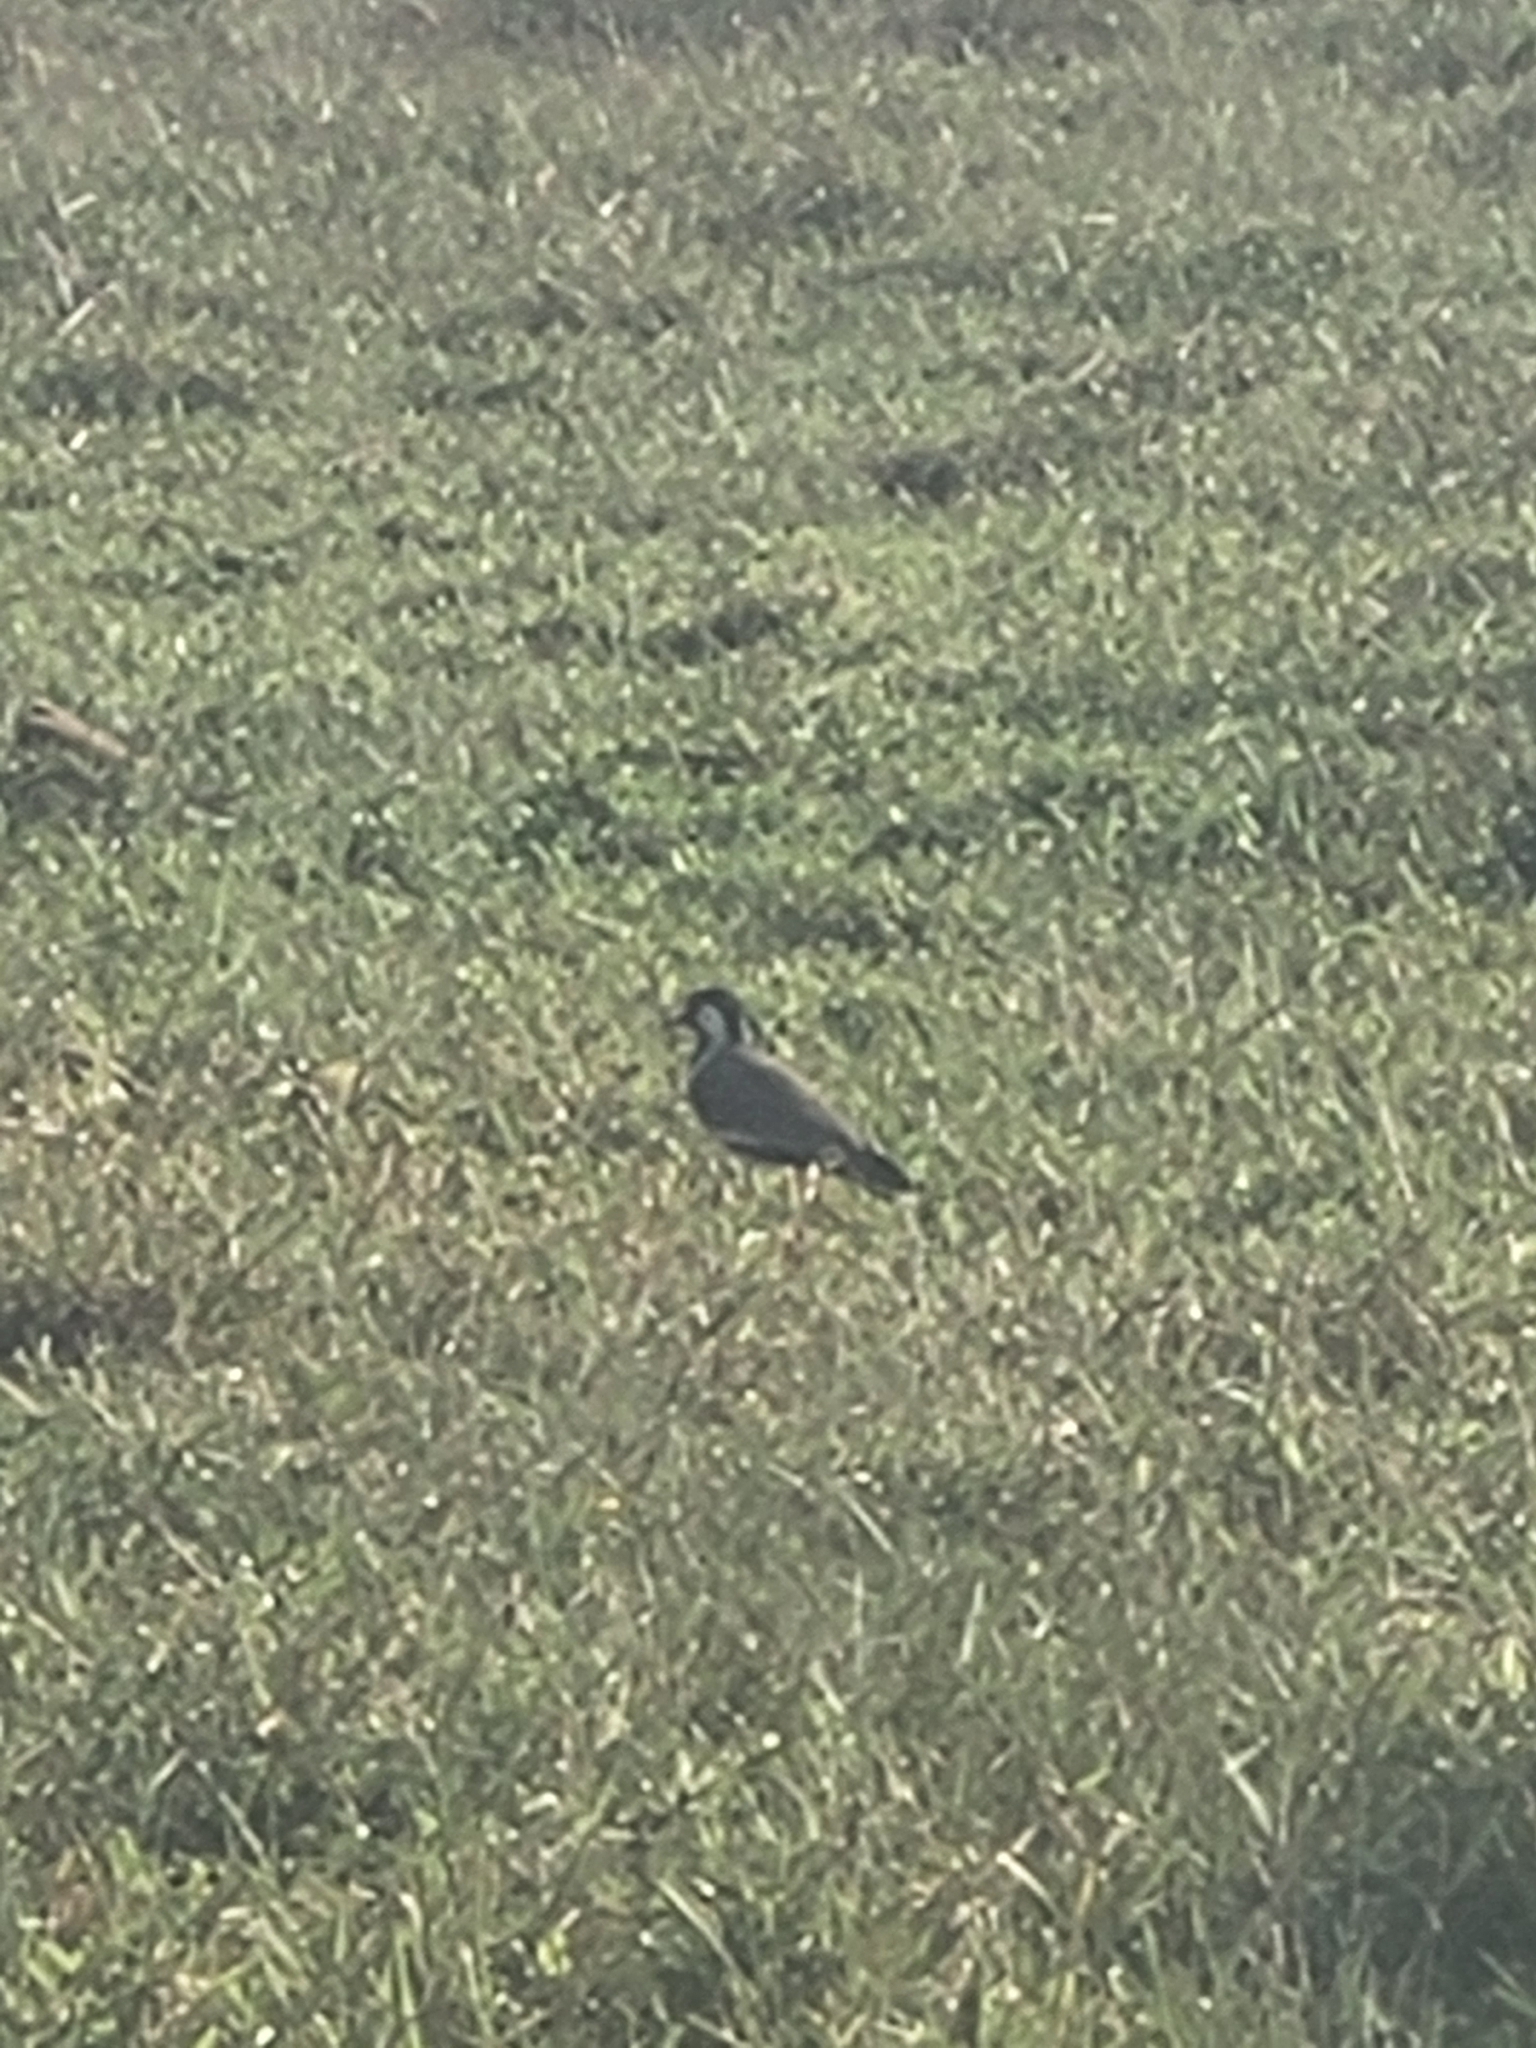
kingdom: Animalia
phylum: Chordata
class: Aves
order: Charadriiformes
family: Charadriidae
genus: Vanellus
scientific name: Vanellus indicus
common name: Red-wattled lapwing
